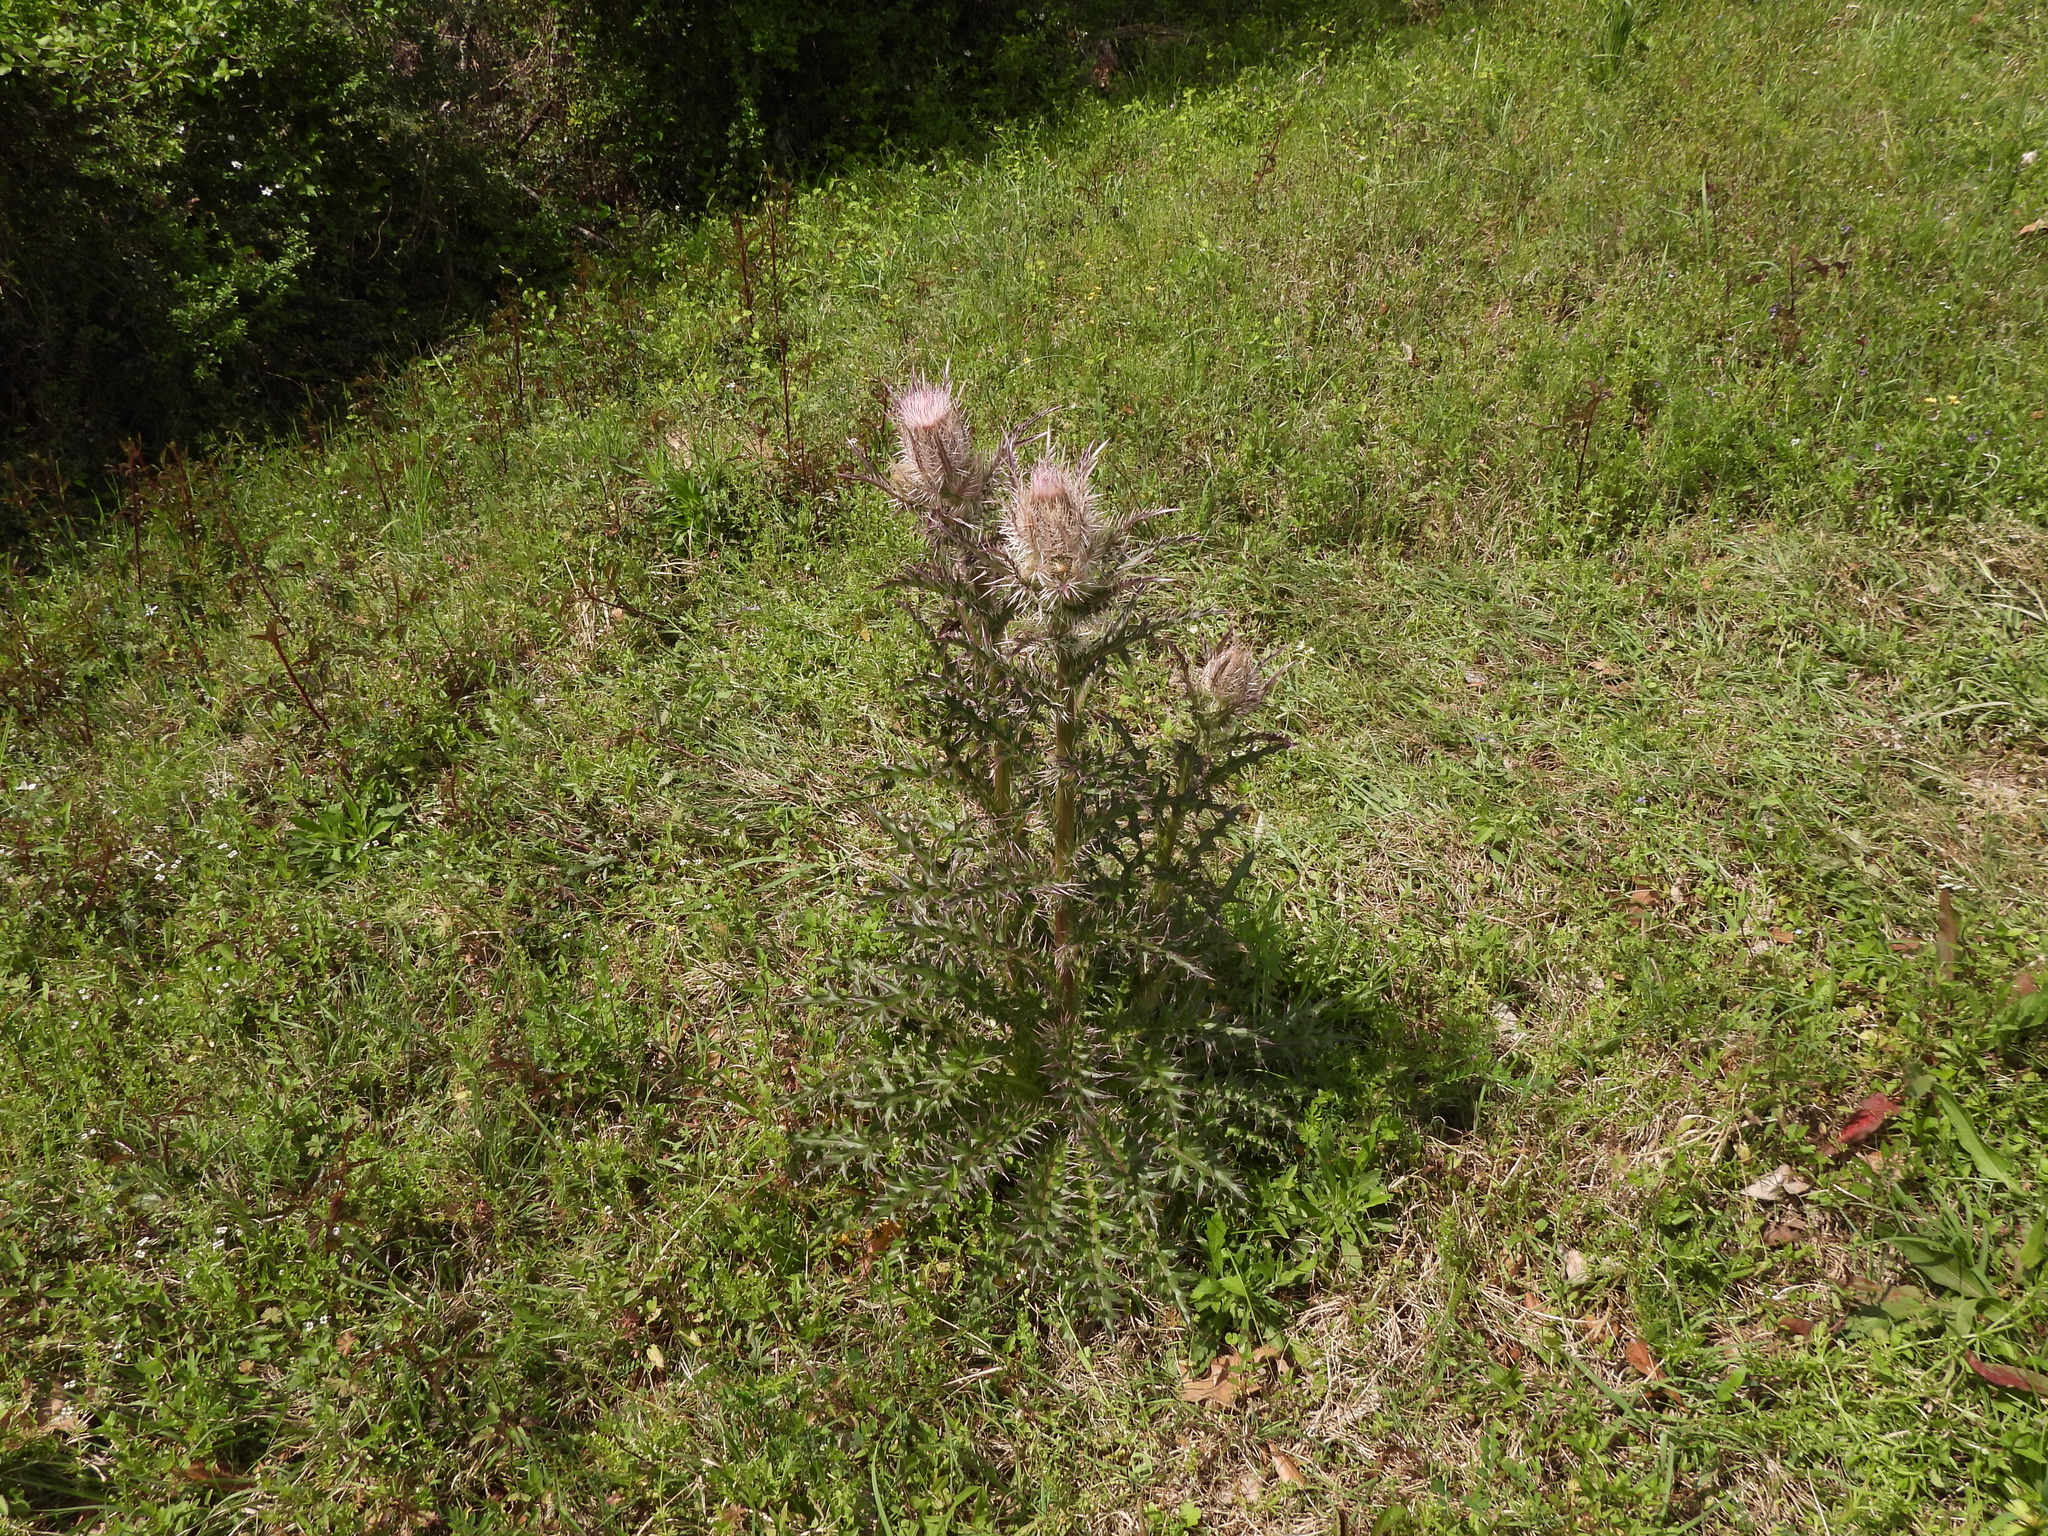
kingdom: Plantae
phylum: Tracheophyta
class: Magnoliopsida
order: Asterales
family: Asteraceae
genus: Cirsium
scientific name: Cirsium horridulum
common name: Bristly thistle
